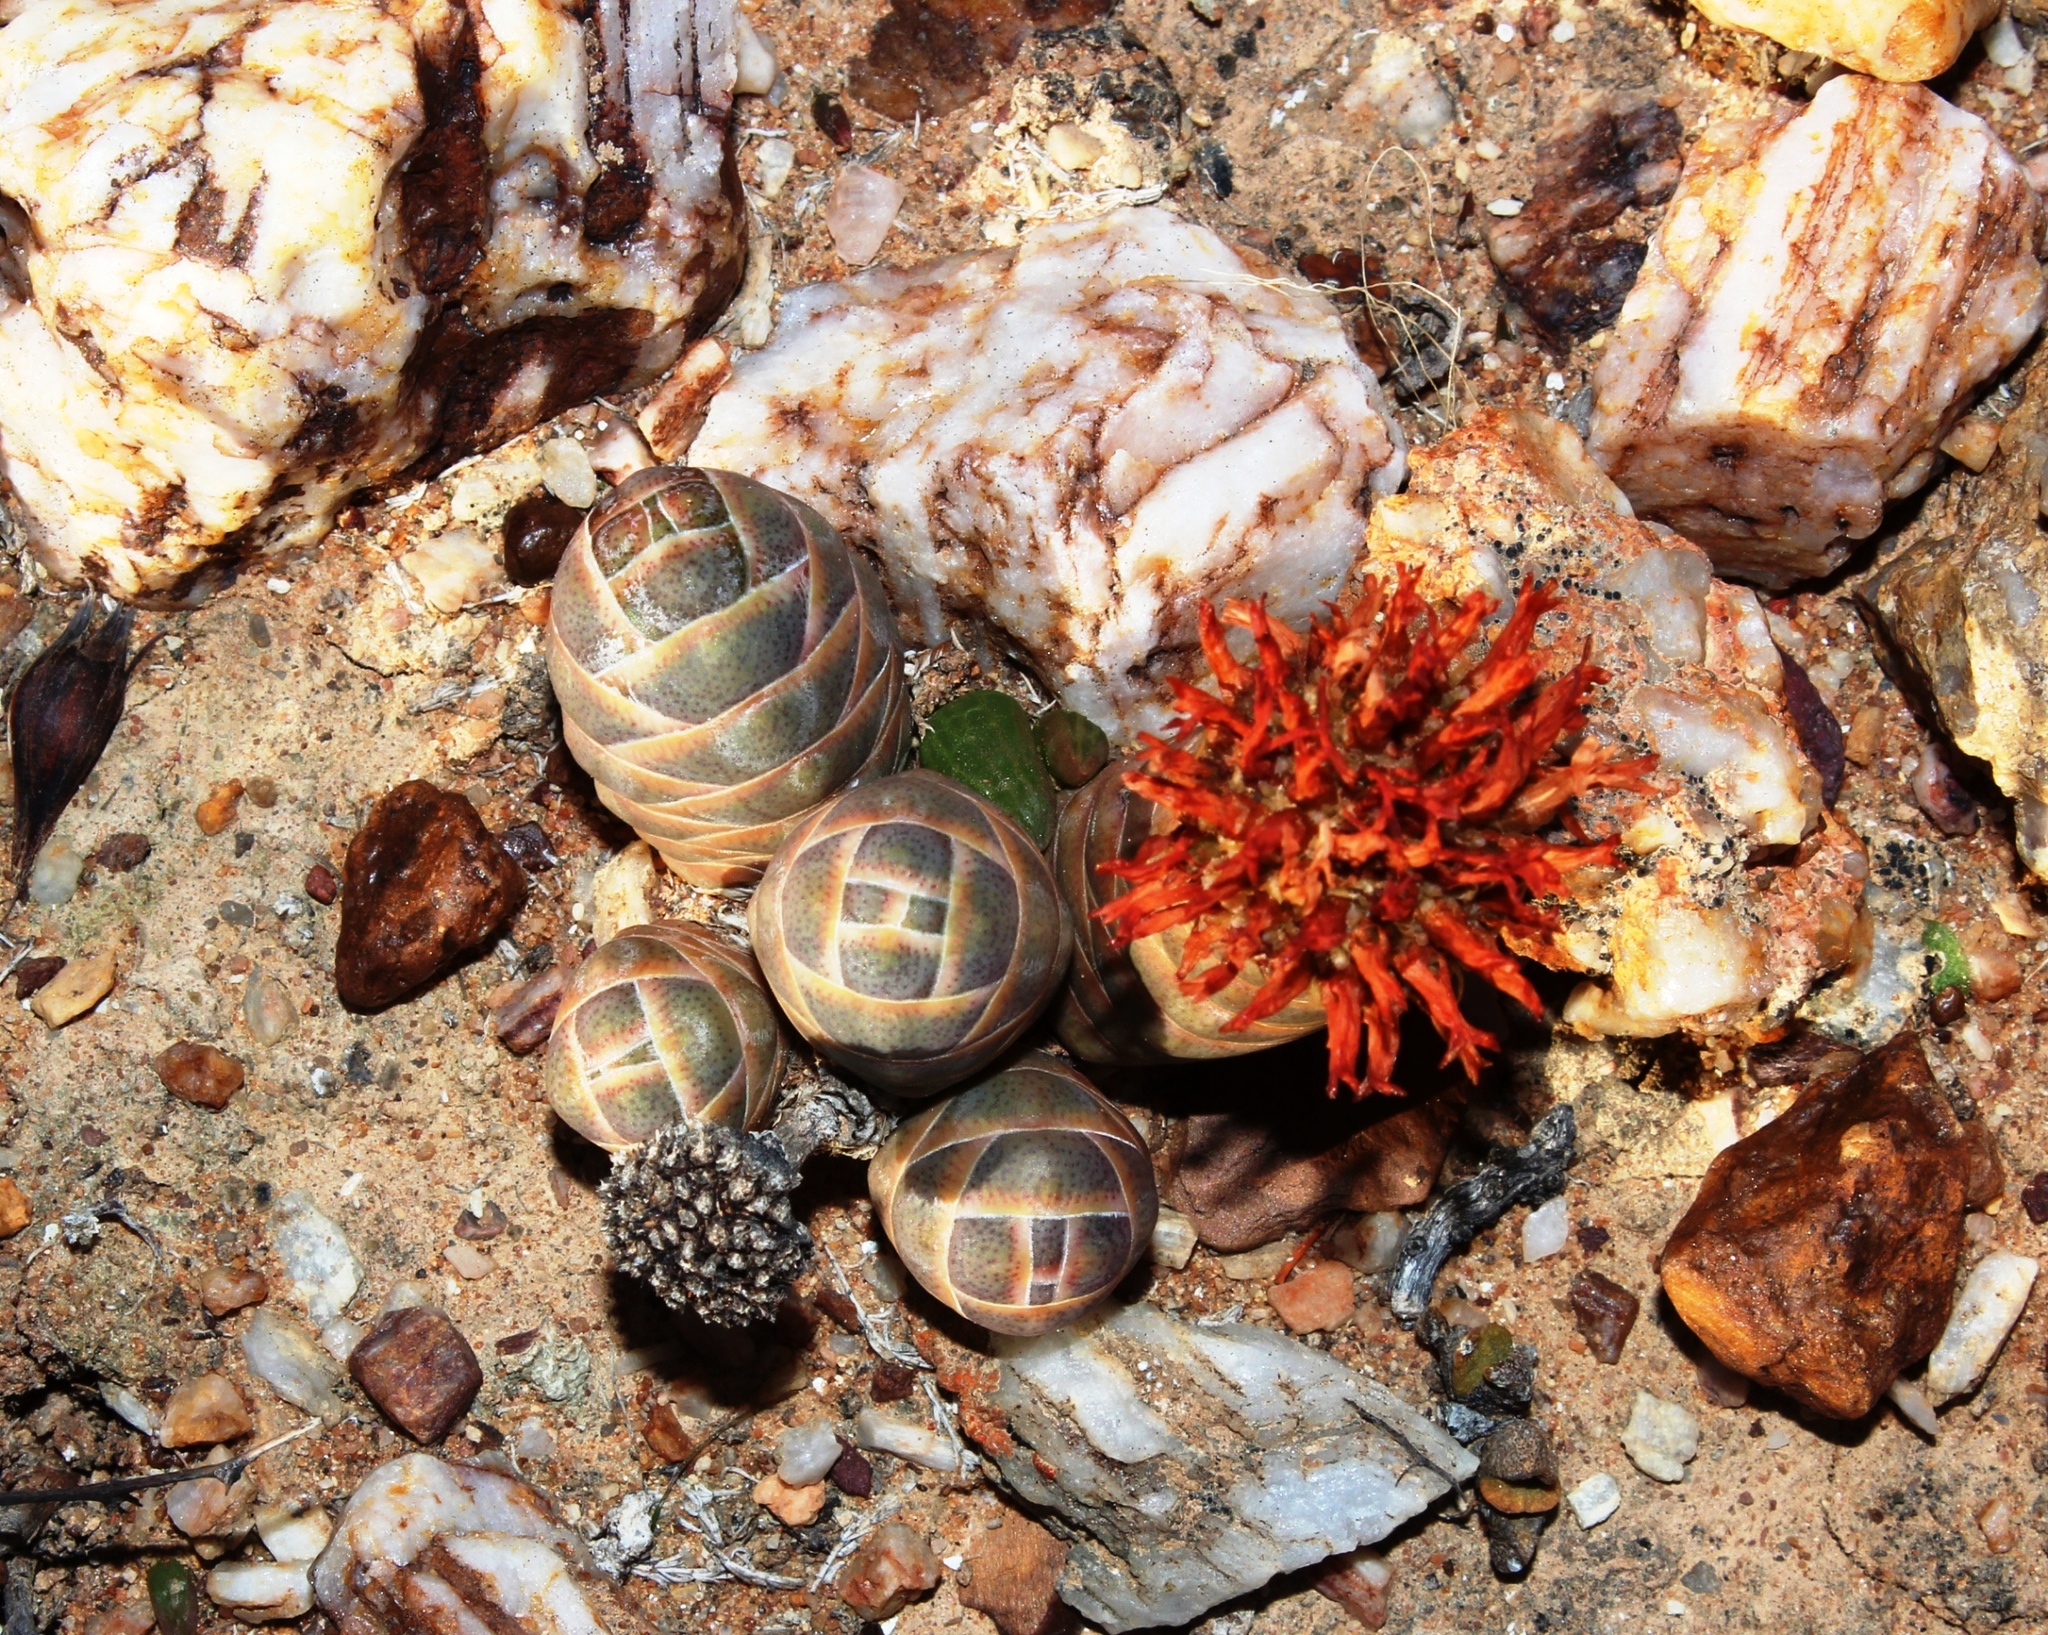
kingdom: Plantae
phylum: Tracheophyta
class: Magnoliopsida
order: Saxifragales
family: Crassulaceae
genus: Crassula
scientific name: Crassula barklyi
